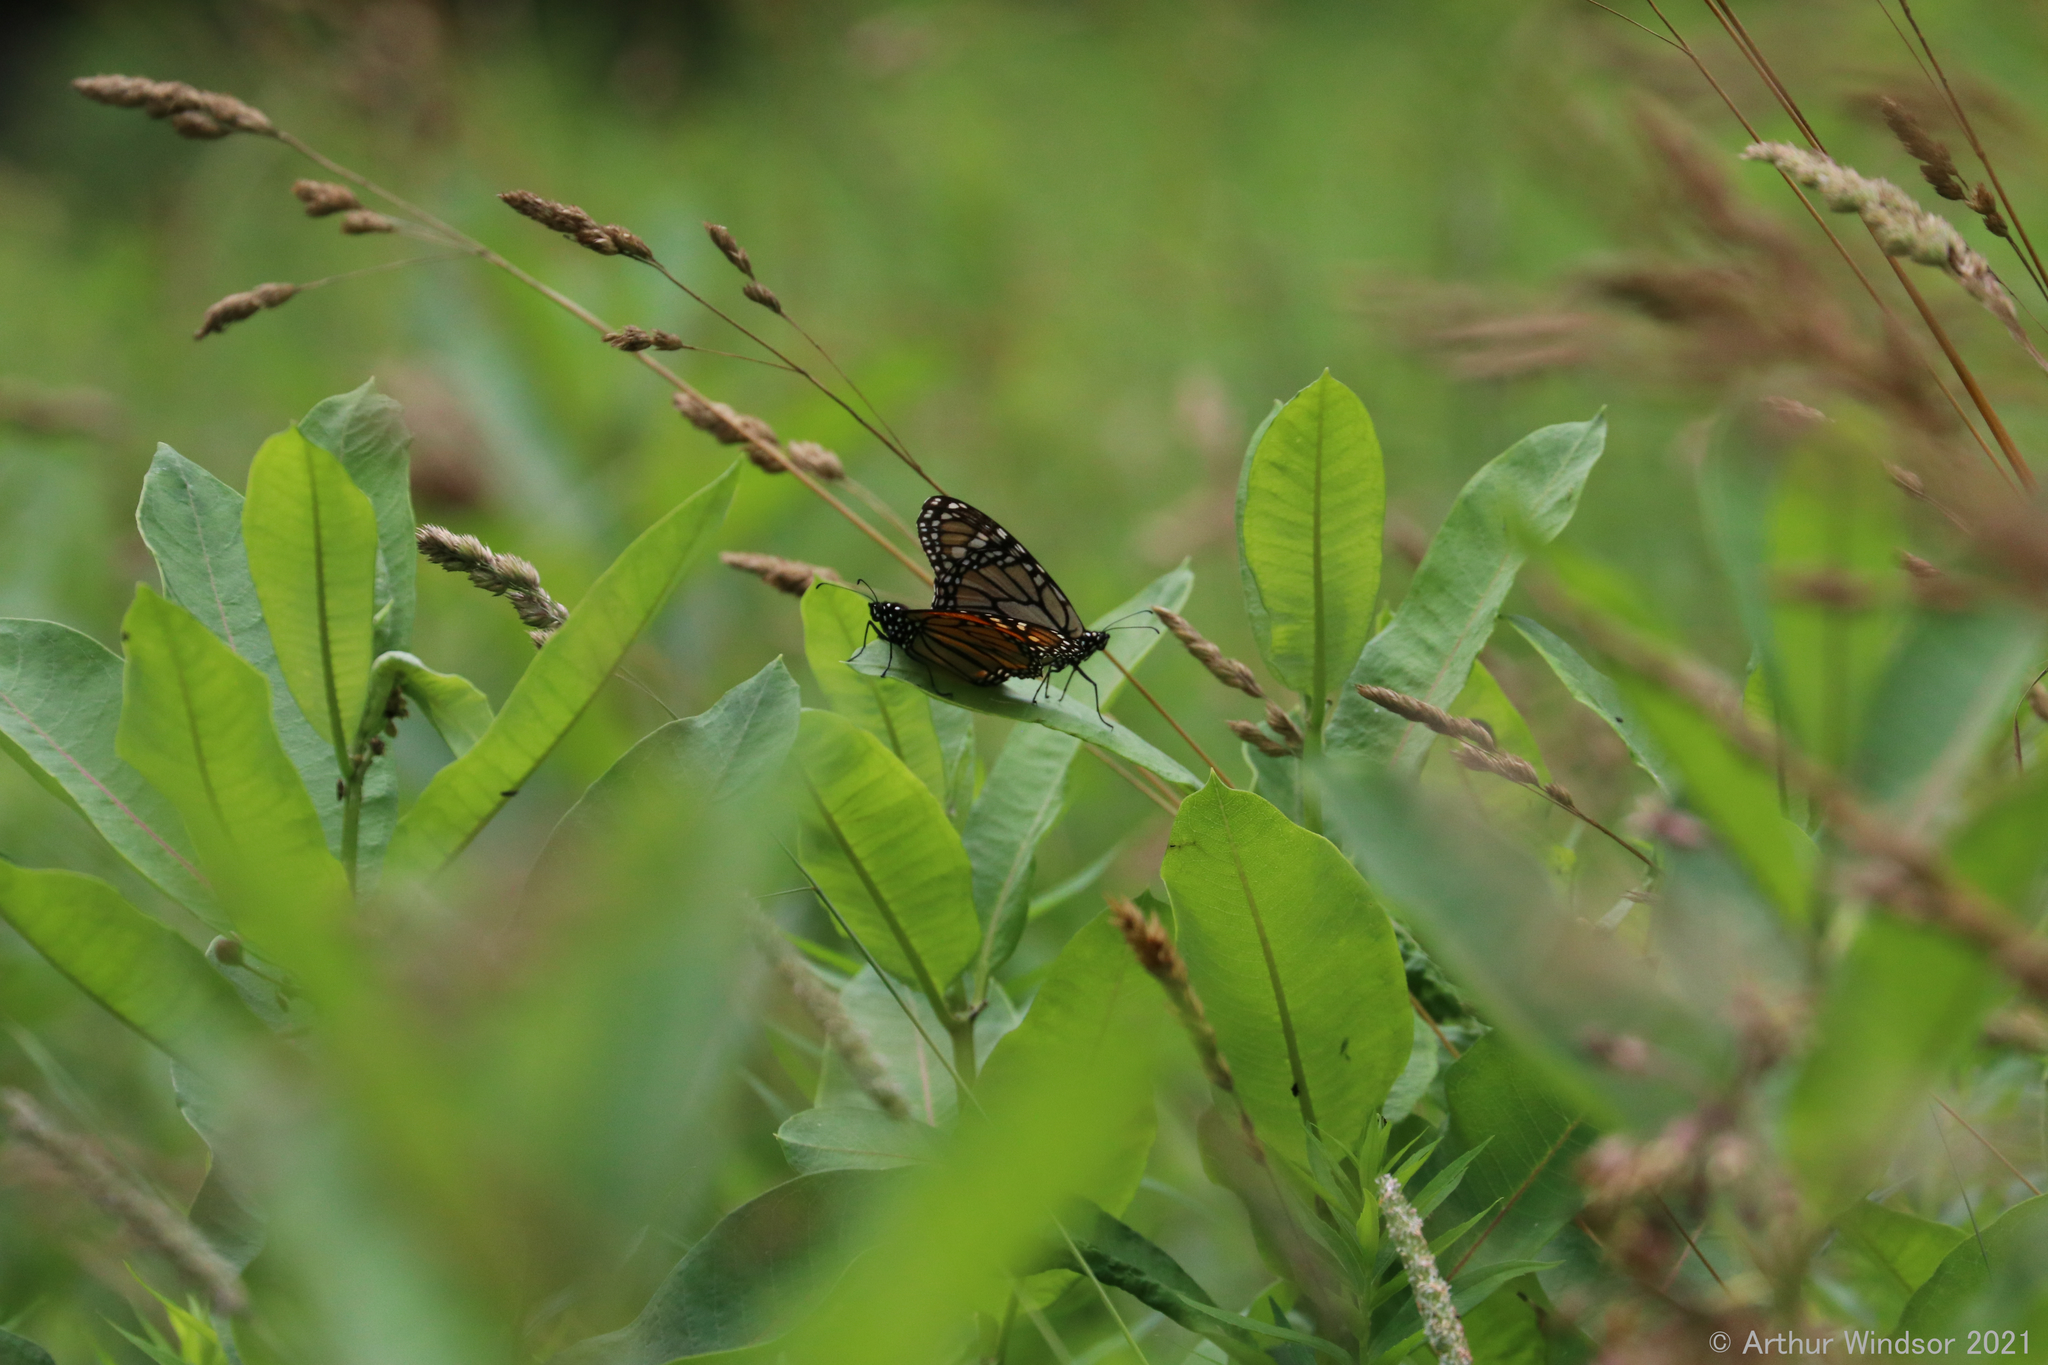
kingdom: Animalia
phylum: Arthropoda
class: Insecta
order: Lepidoptera
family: Nymphalidae
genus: Danaus
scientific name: Danaus plexippus
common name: Monarch
